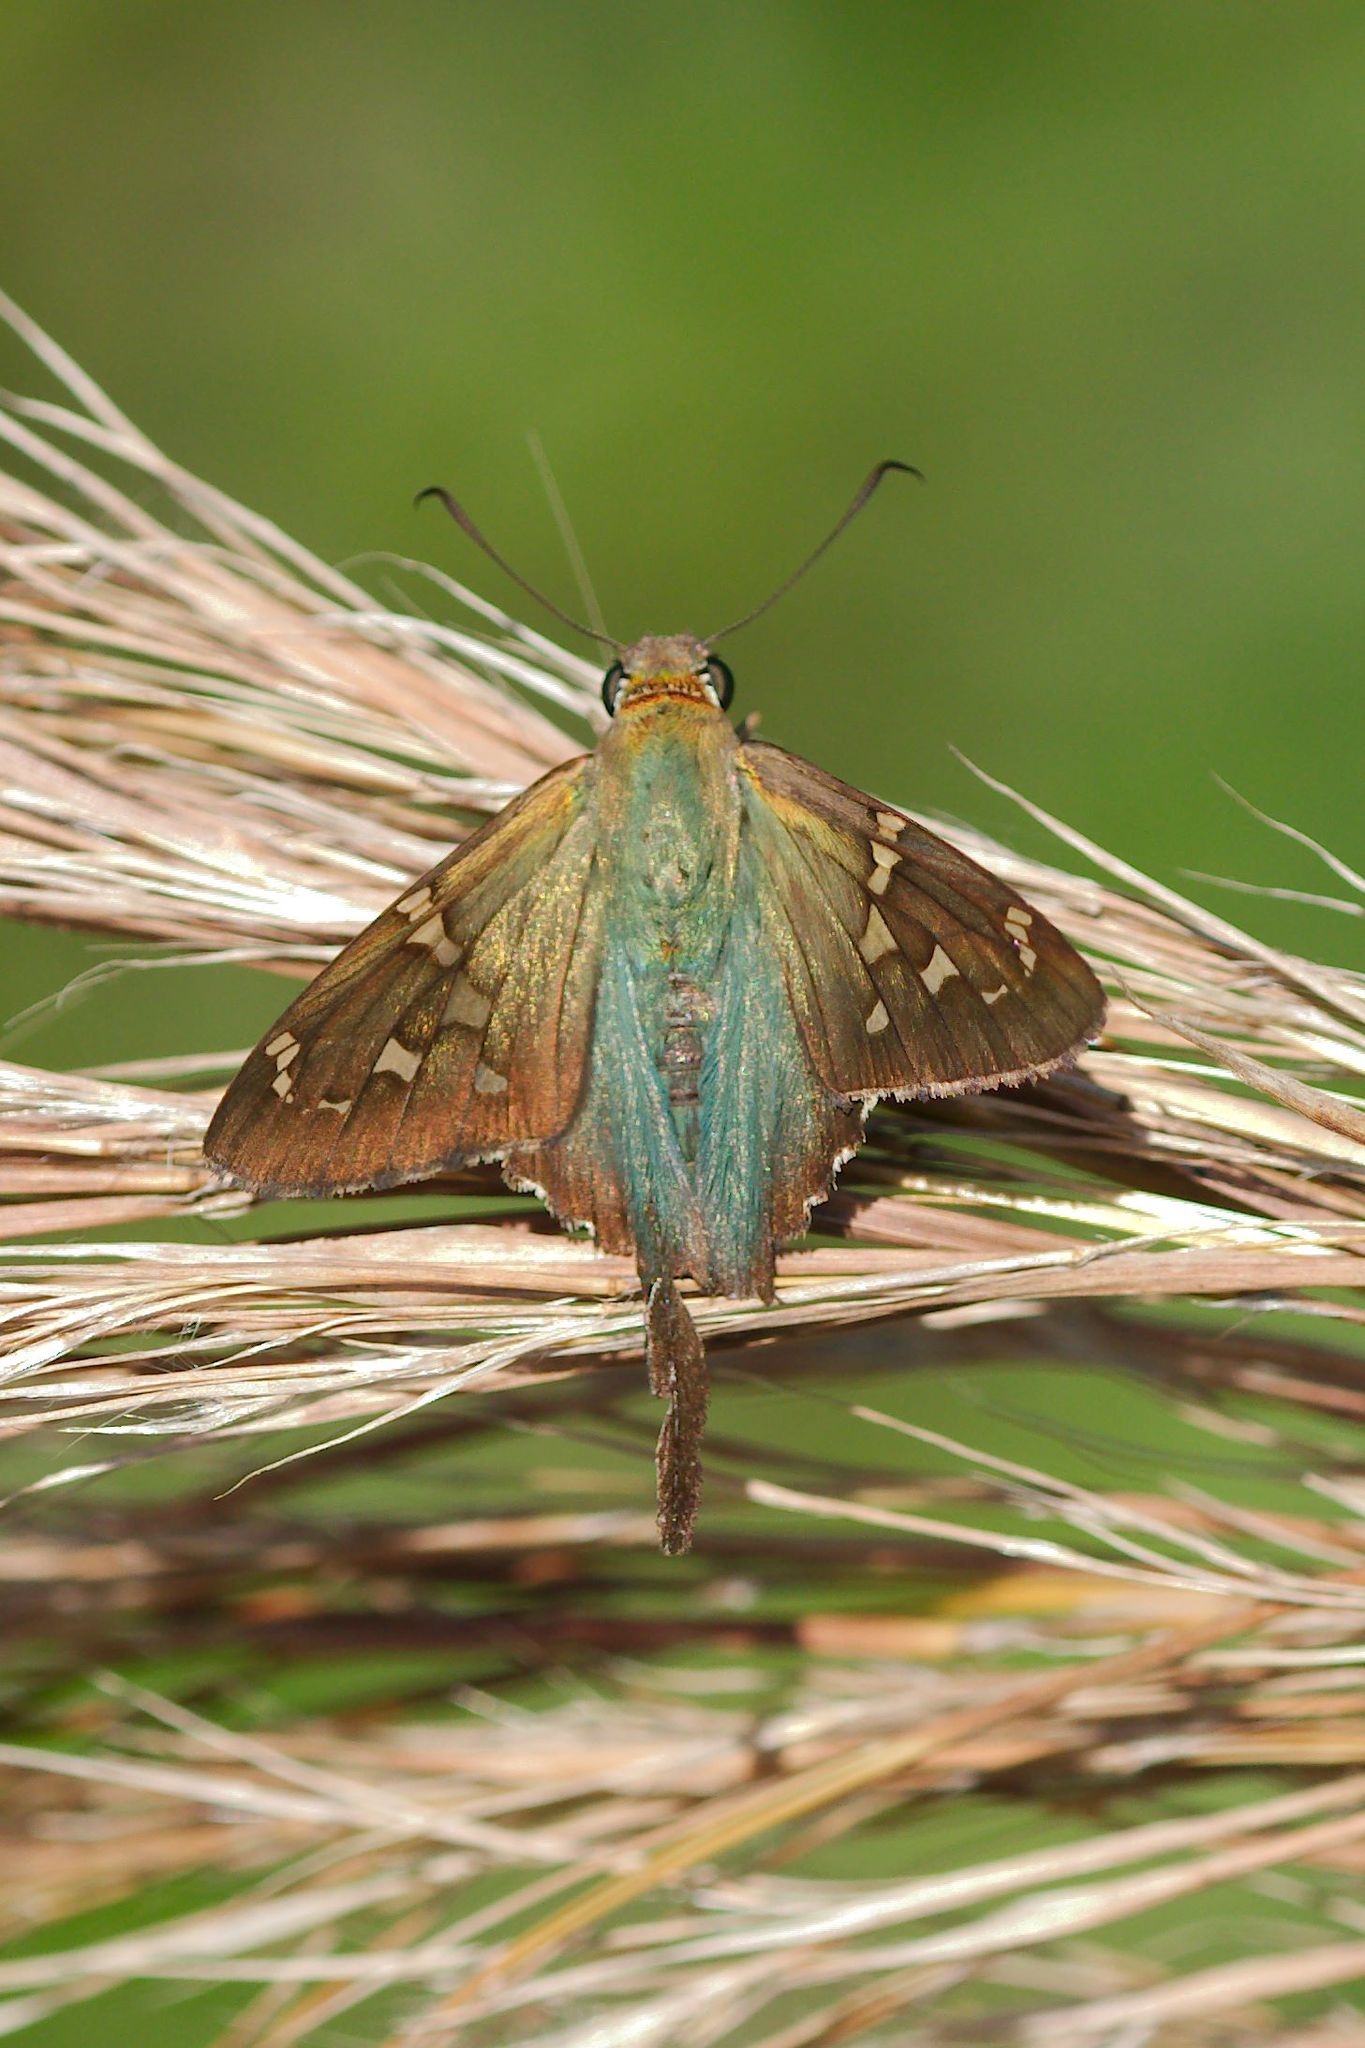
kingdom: Animalia
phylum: Arthropoda
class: Insecta
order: Lepidoptera
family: Hesperiidae
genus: Urbanus
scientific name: Urbanus proteus
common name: Long-tailed skipper
